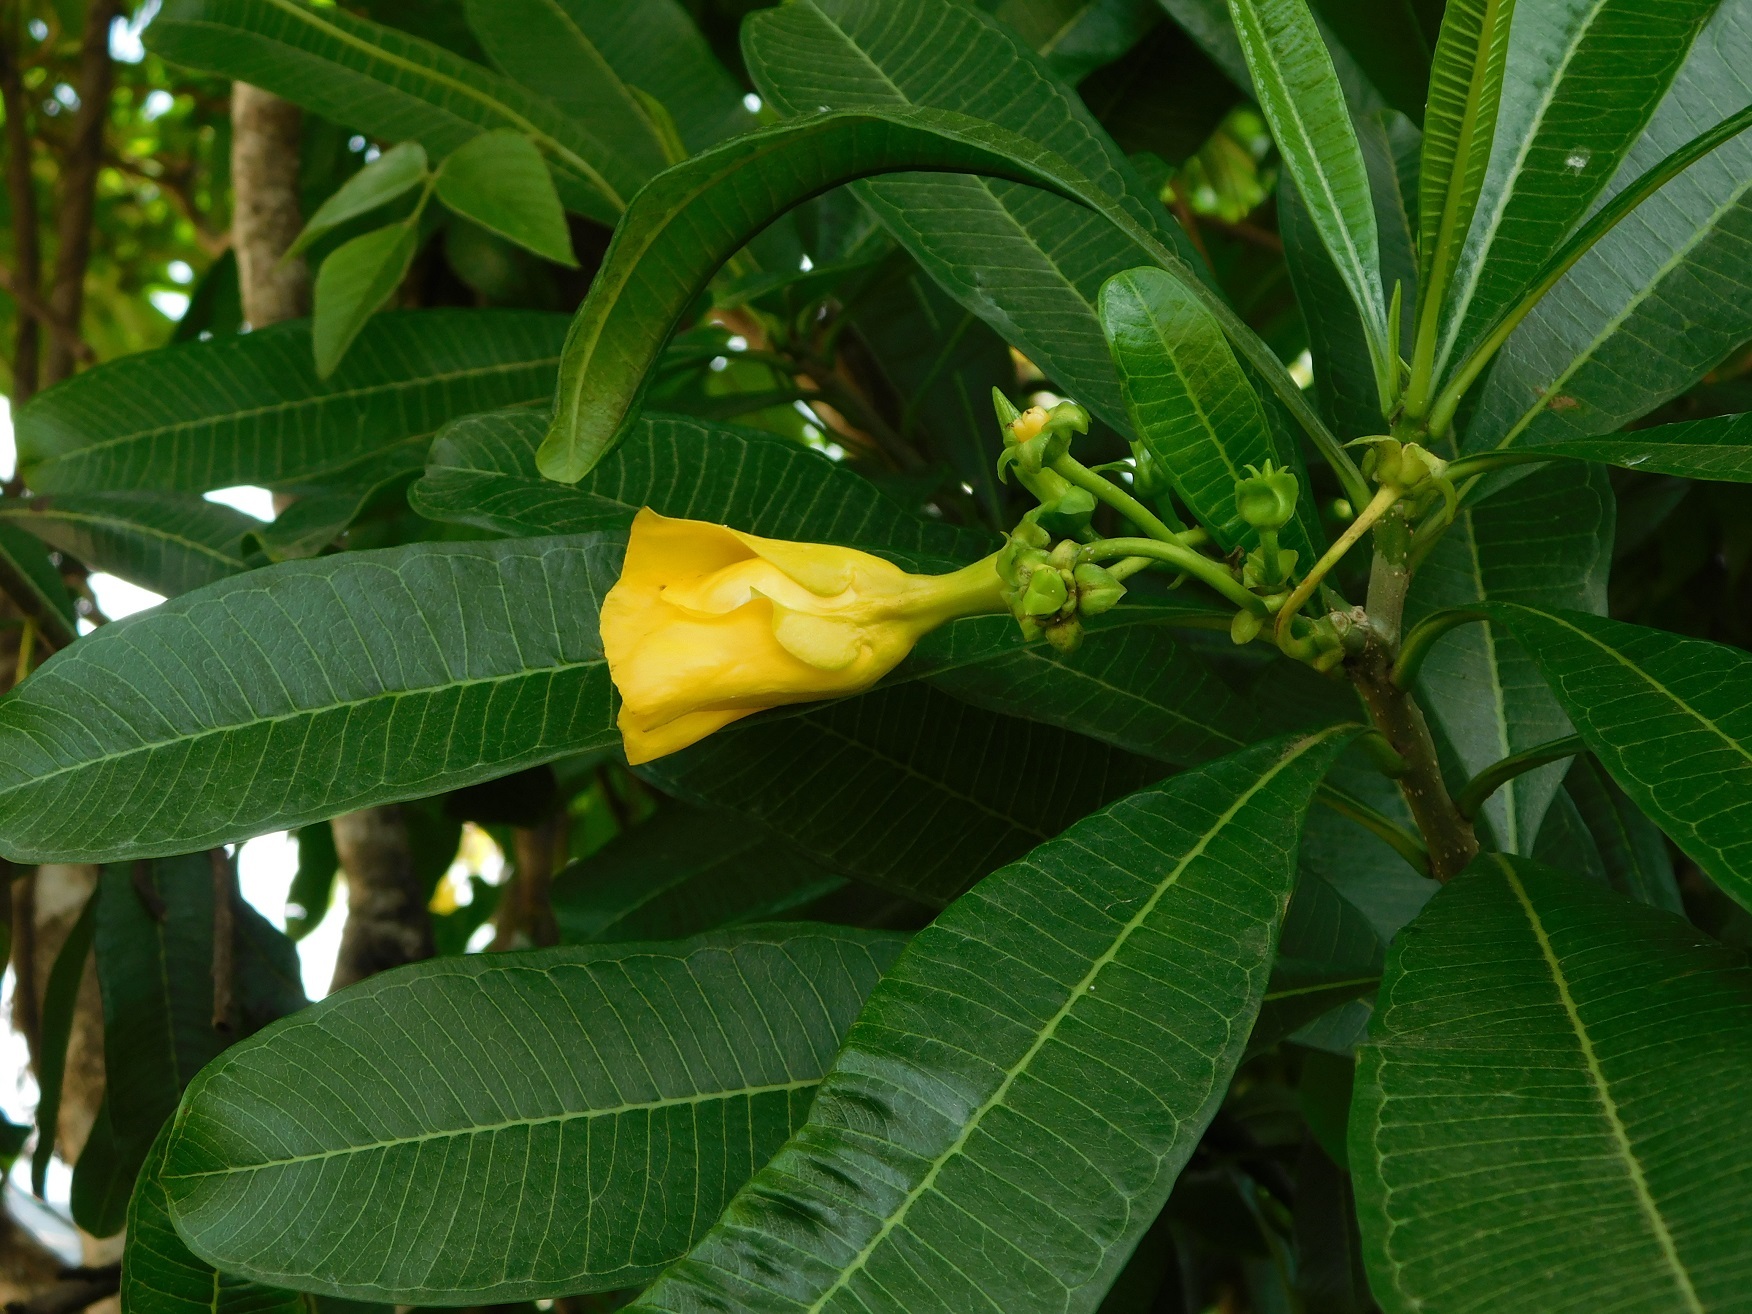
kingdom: Plantae
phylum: Tracheophyta
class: Magnoliopsida
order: Gentianales
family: Apocynaceae
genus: Cascabela
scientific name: Cascabela ovata
